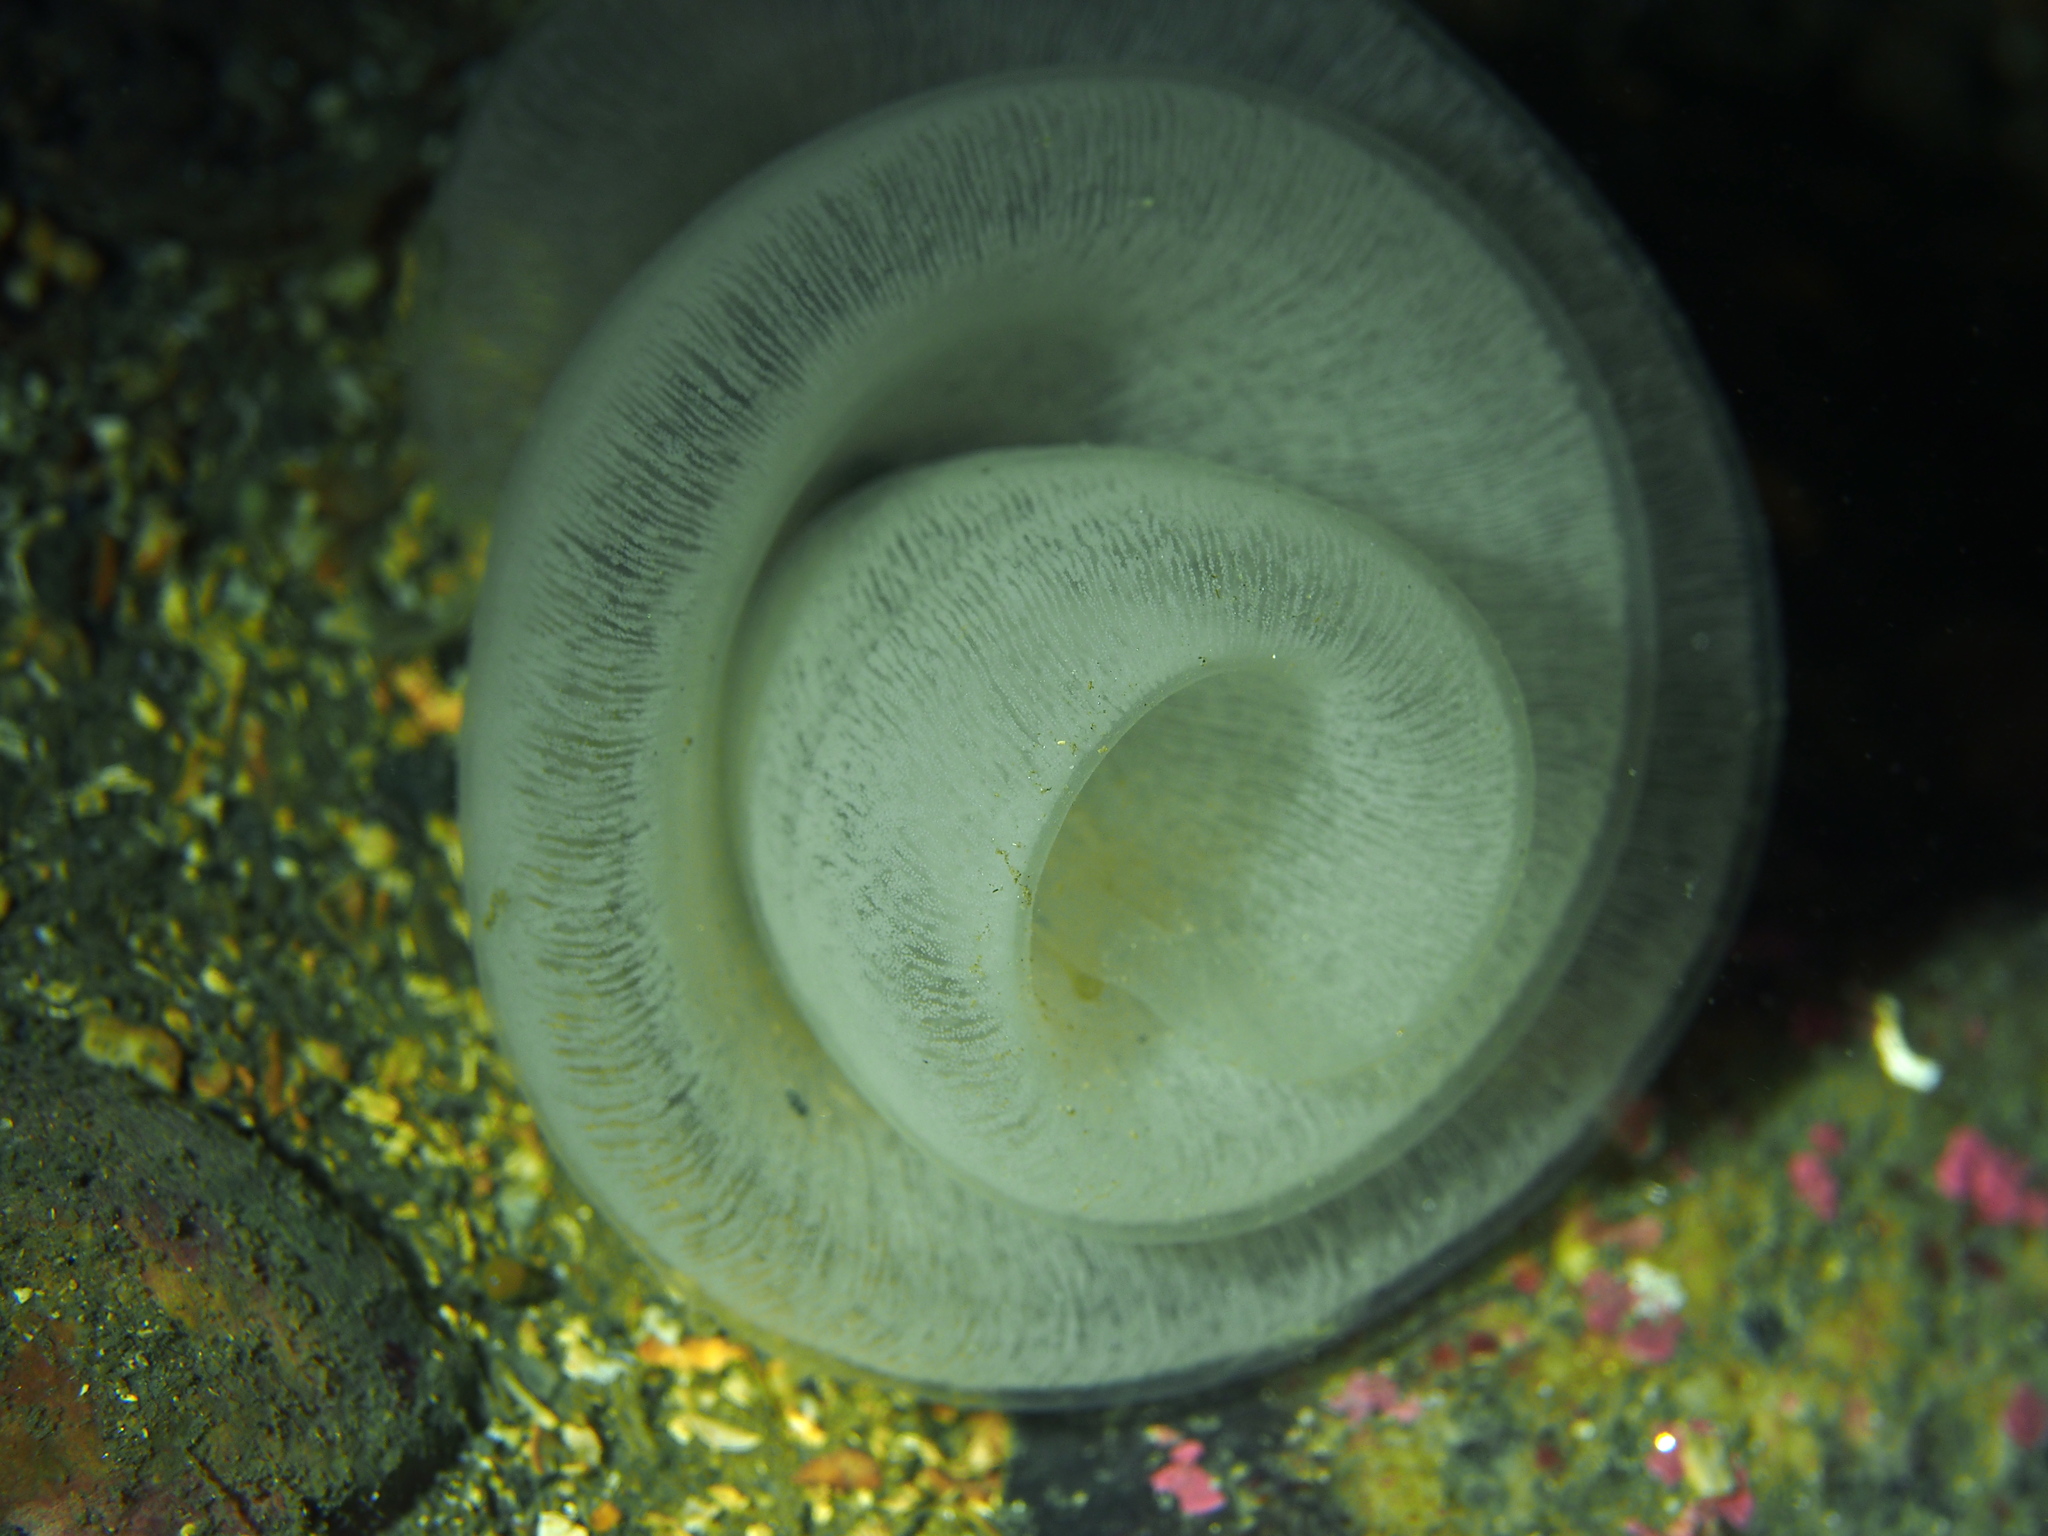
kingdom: Animalia
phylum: Mollusca
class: Gastropoda
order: Pleurobranchida
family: Pleurobranchidae
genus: Pleurobranchus
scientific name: Pleurobranchus membranaceus
